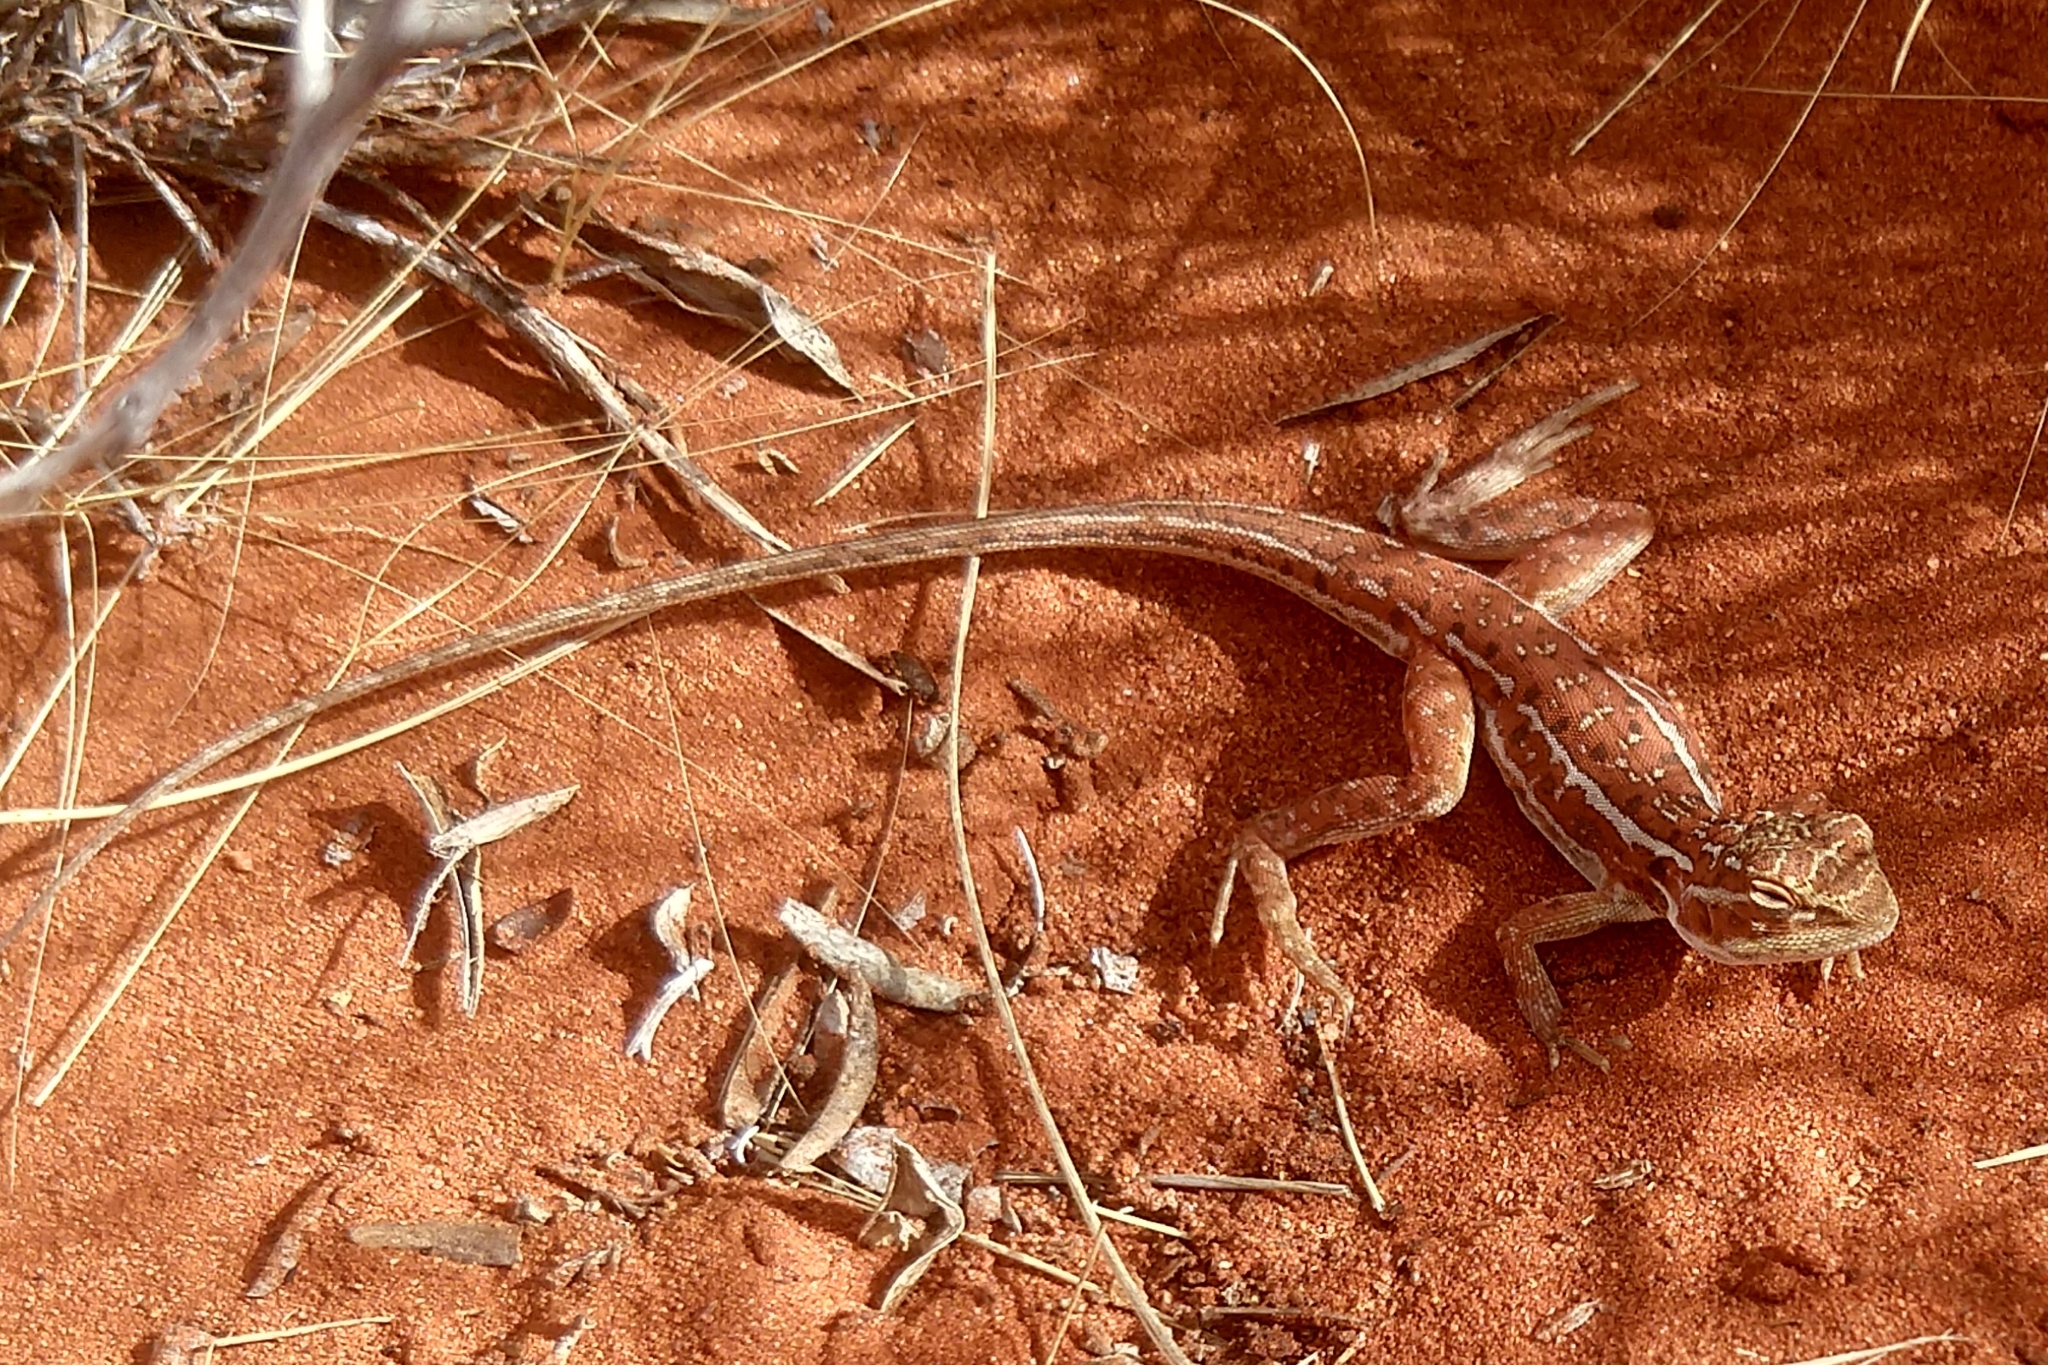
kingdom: Animalia
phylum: Chordata
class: Squamata
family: Agamidae
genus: Ctenophorus
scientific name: Ctenophorus isolepis
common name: Military dragon
